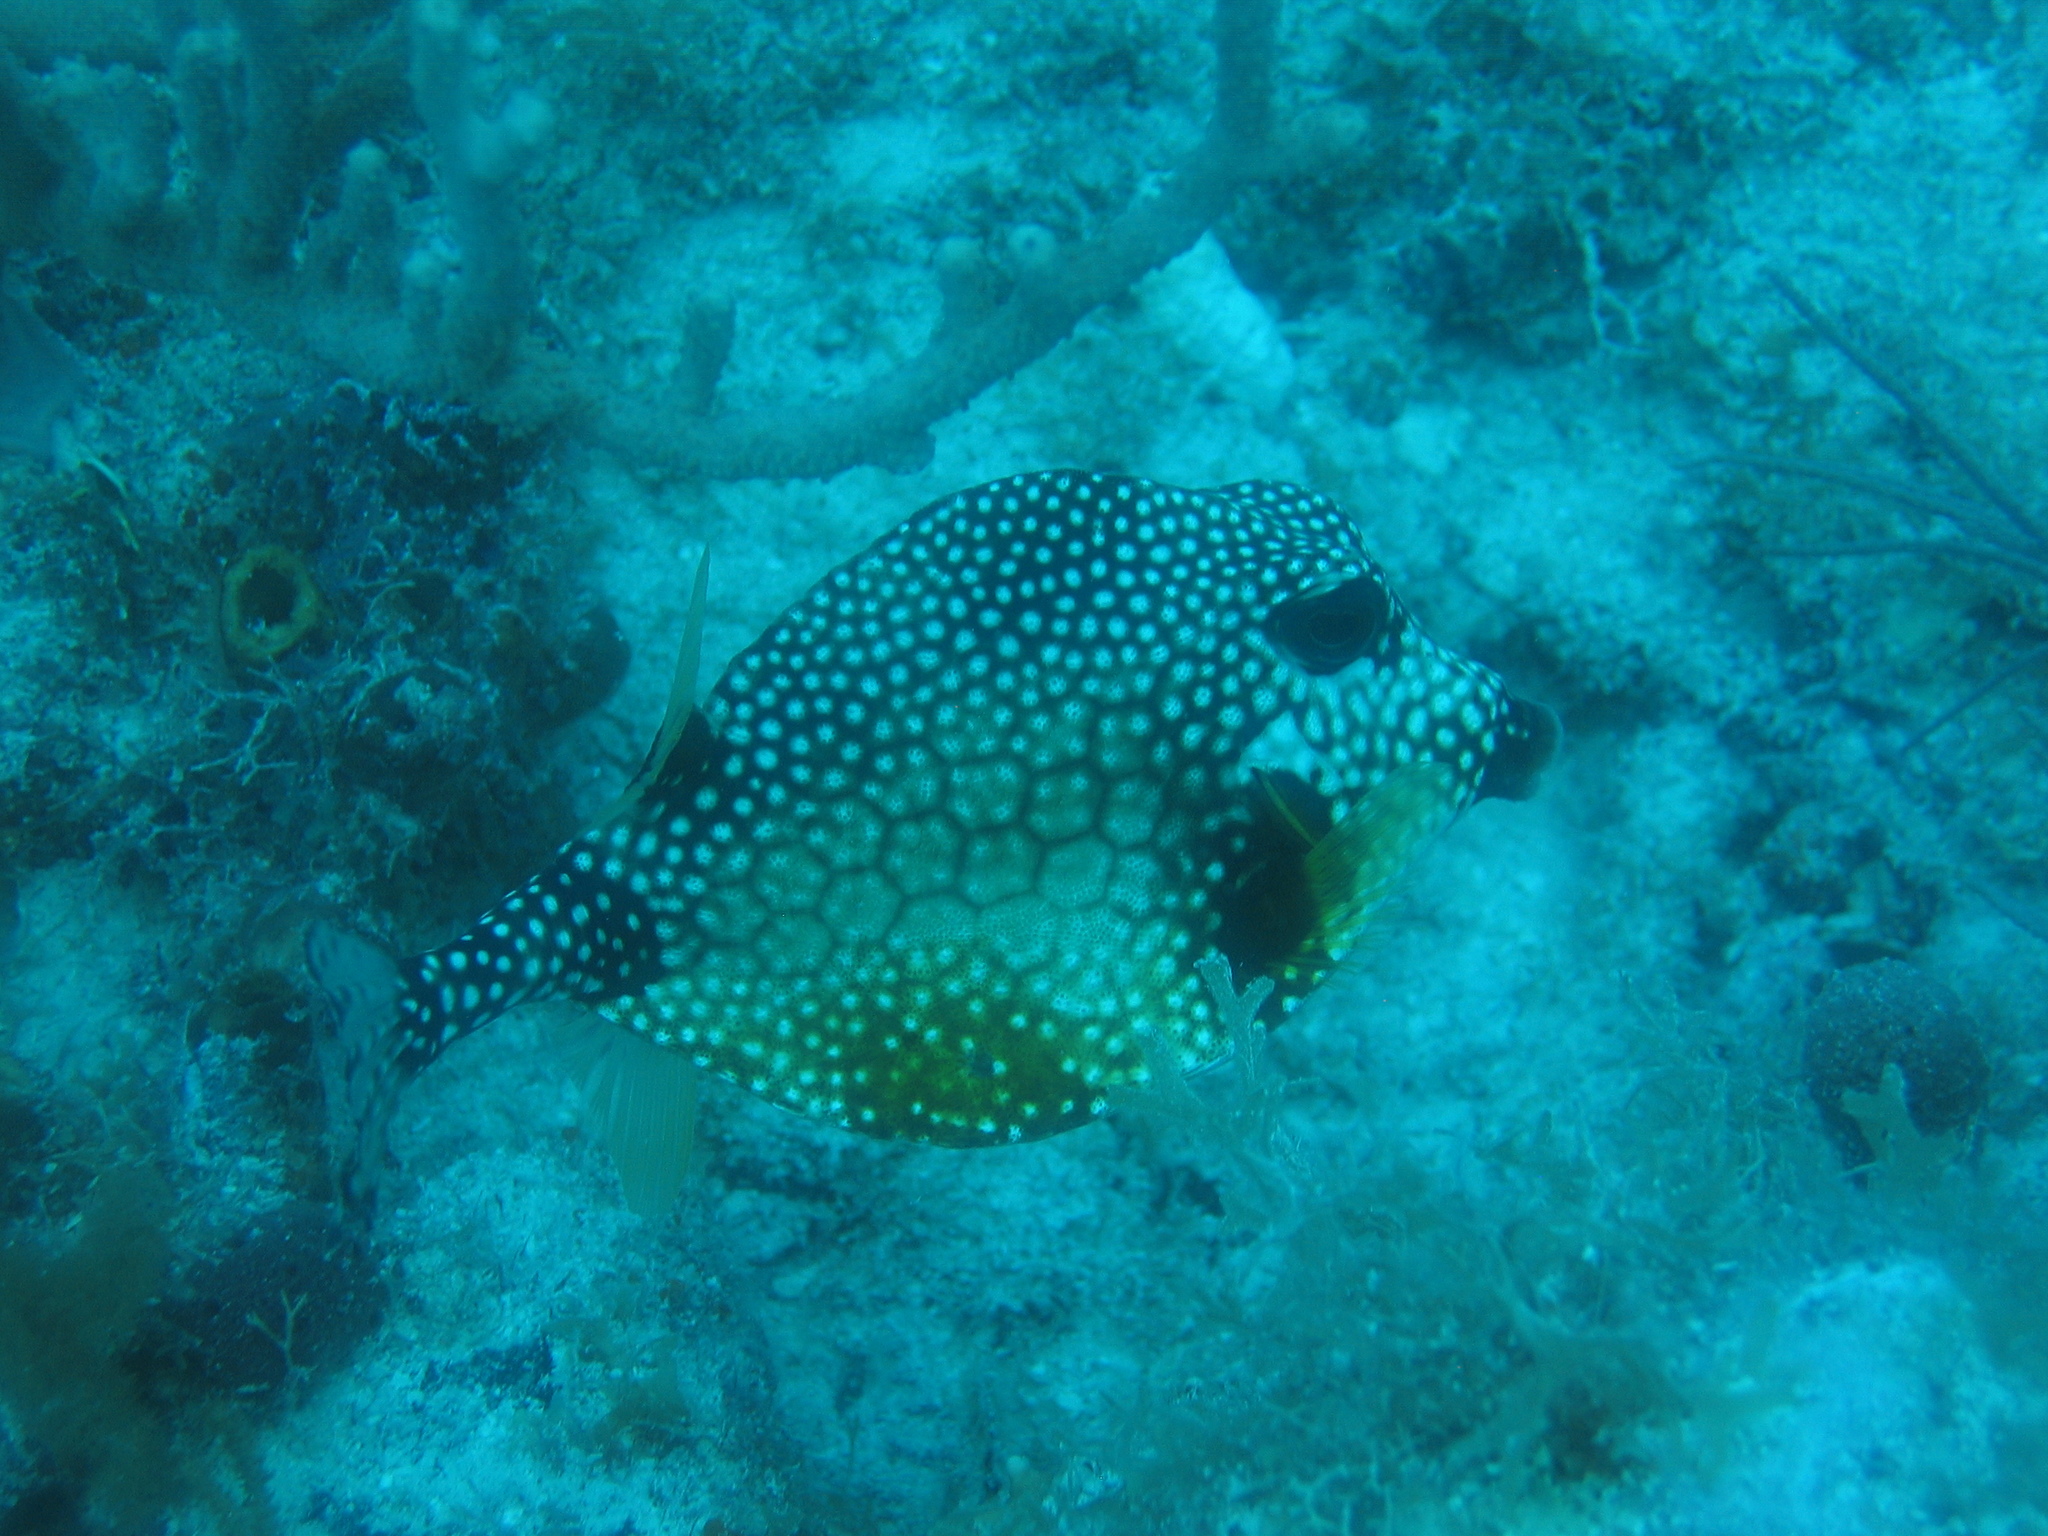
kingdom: Animalia
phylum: Chordata
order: Tetraodontiformes
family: Ostraciidae
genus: Lactophrys
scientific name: Lactophrys triqueter
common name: Smooth trunkfish
